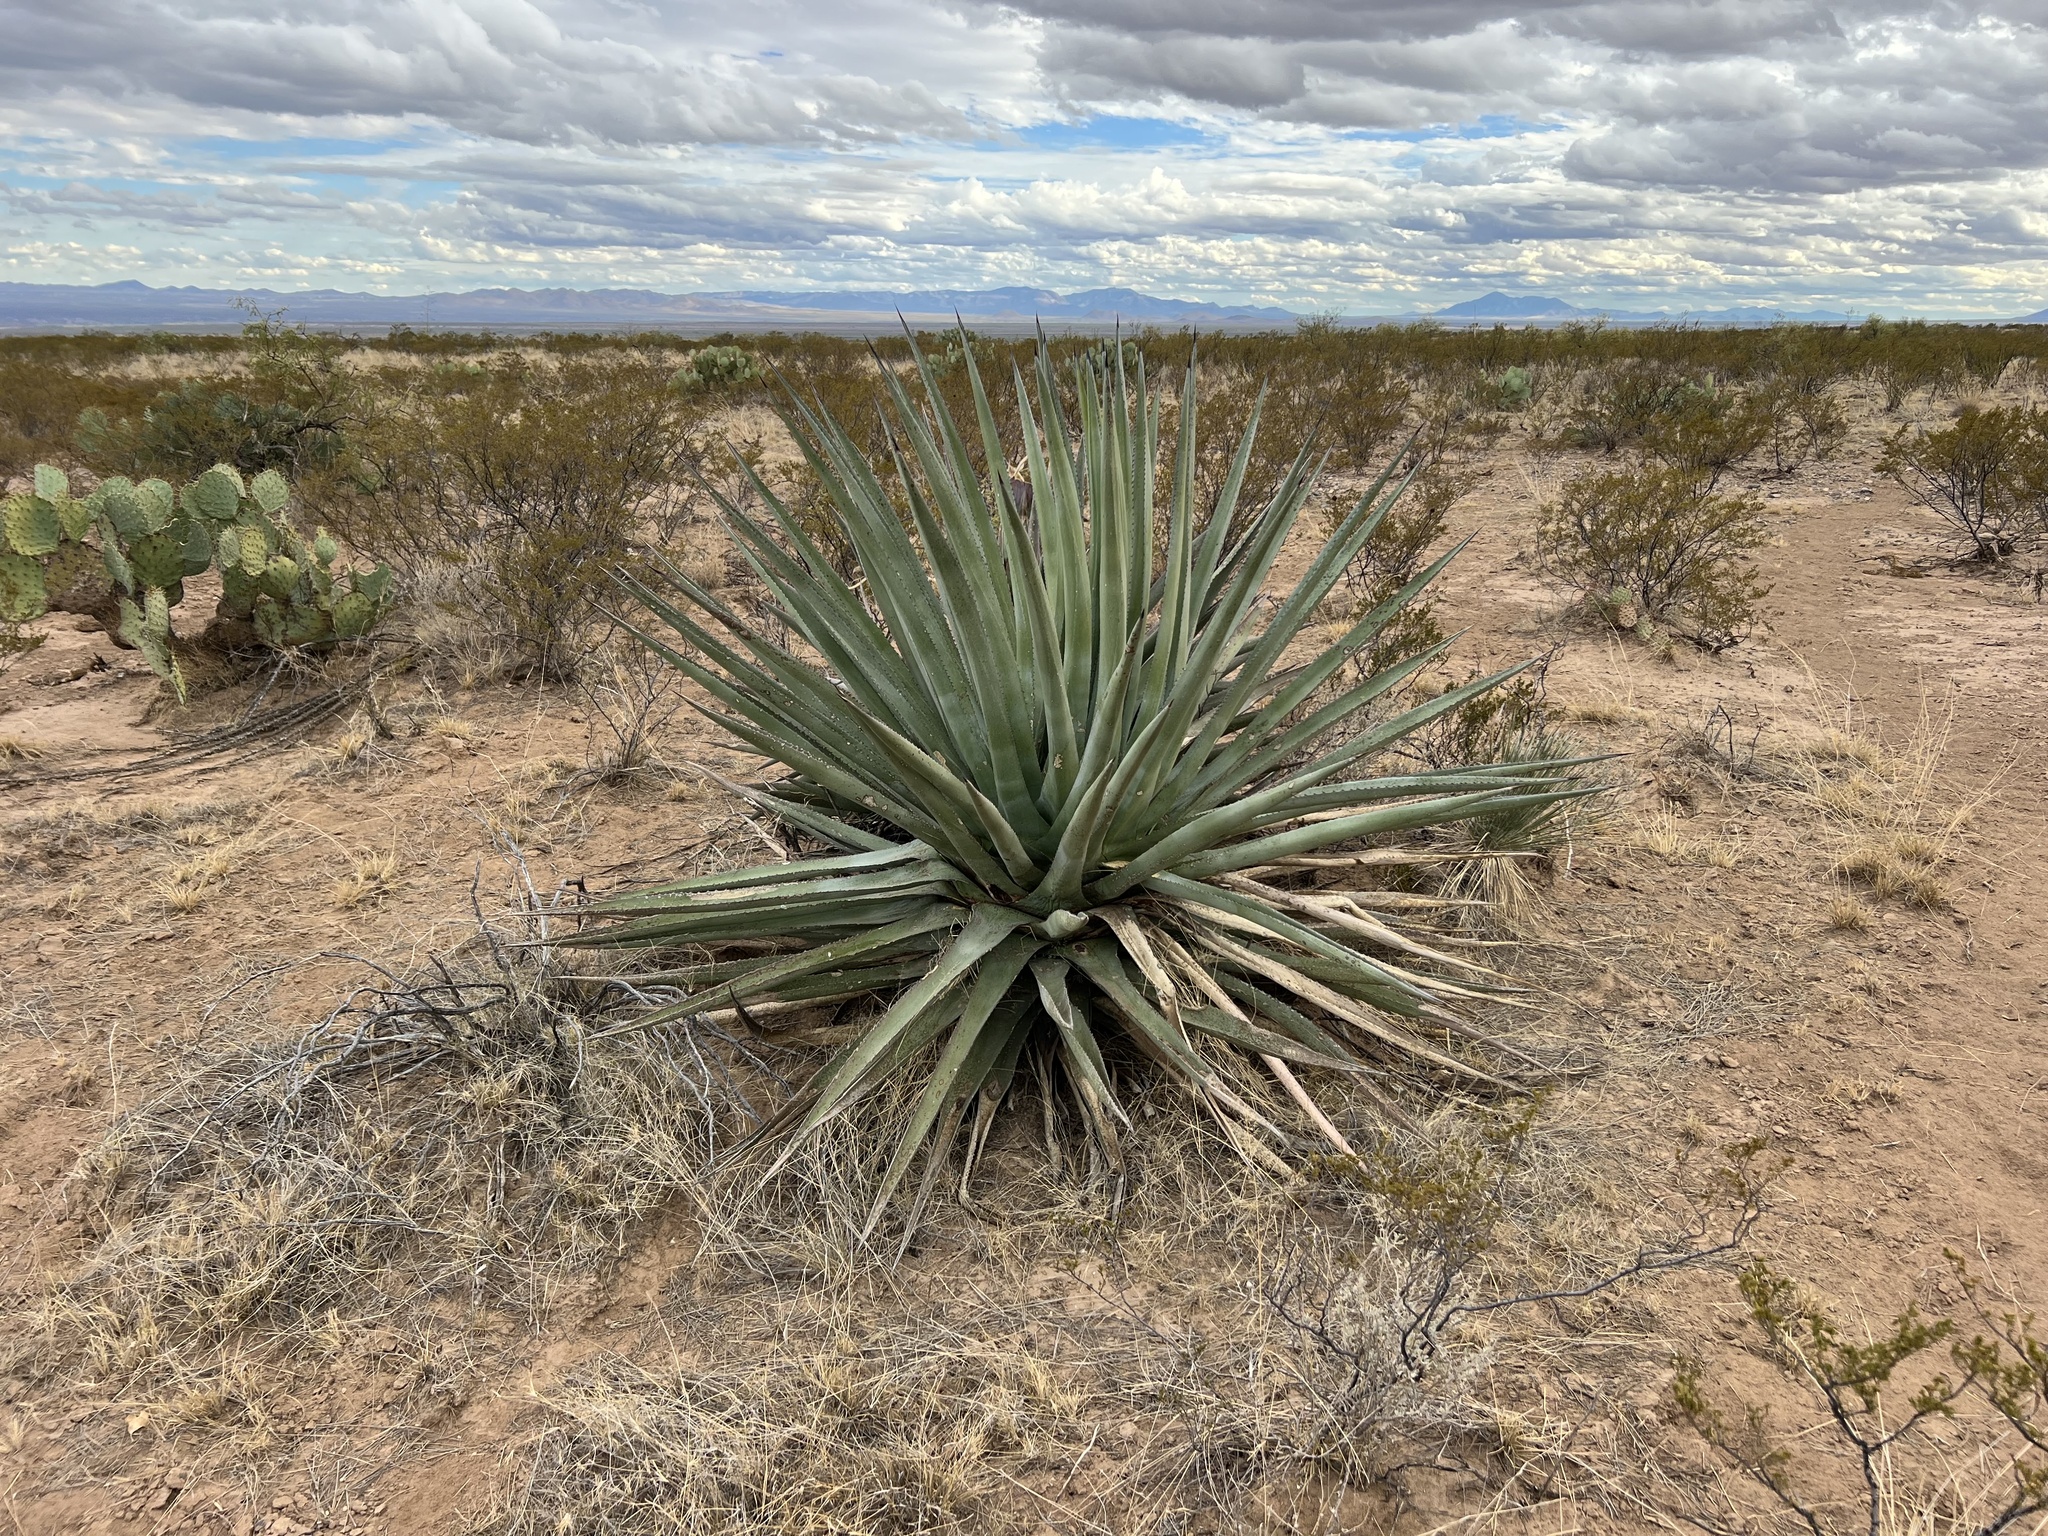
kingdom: Plantae
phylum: Tracheophyta
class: Liliopsida
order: Asparagales
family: Asparagaceae
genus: Agave
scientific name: Agave palmeri
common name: Palmer agave
